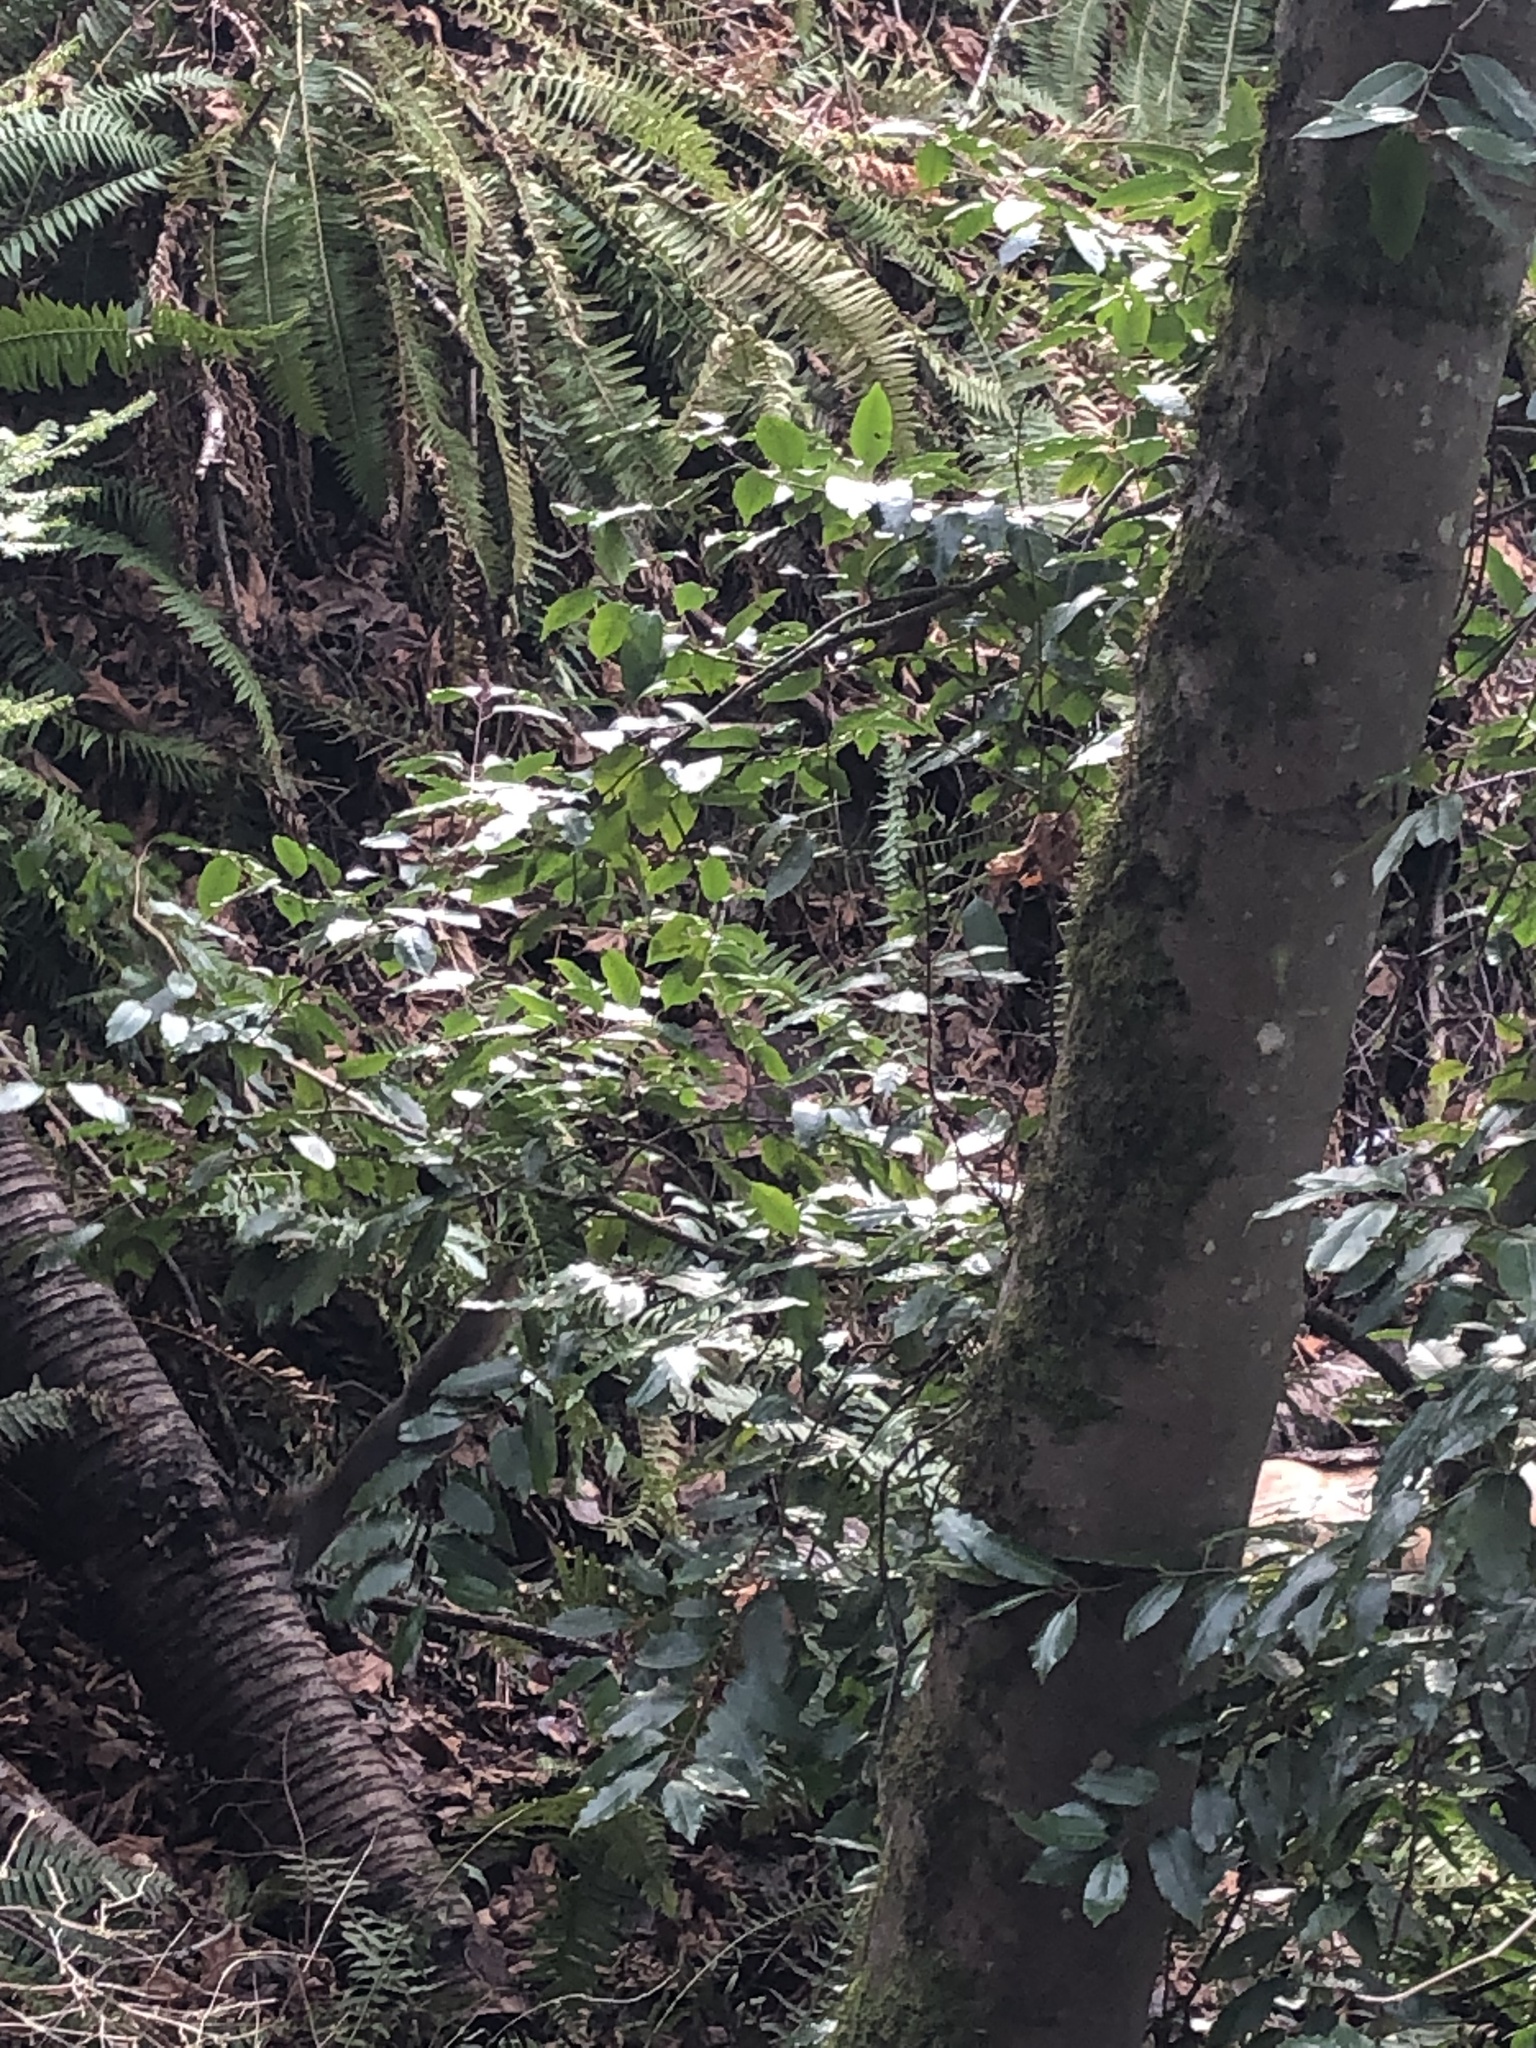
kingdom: Animalia
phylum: Chordata
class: Mammalia
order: Rodentia
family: Sciuridae
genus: Sciurus
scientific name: Sciurus carolinensis
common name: Eastern gray squirrel
